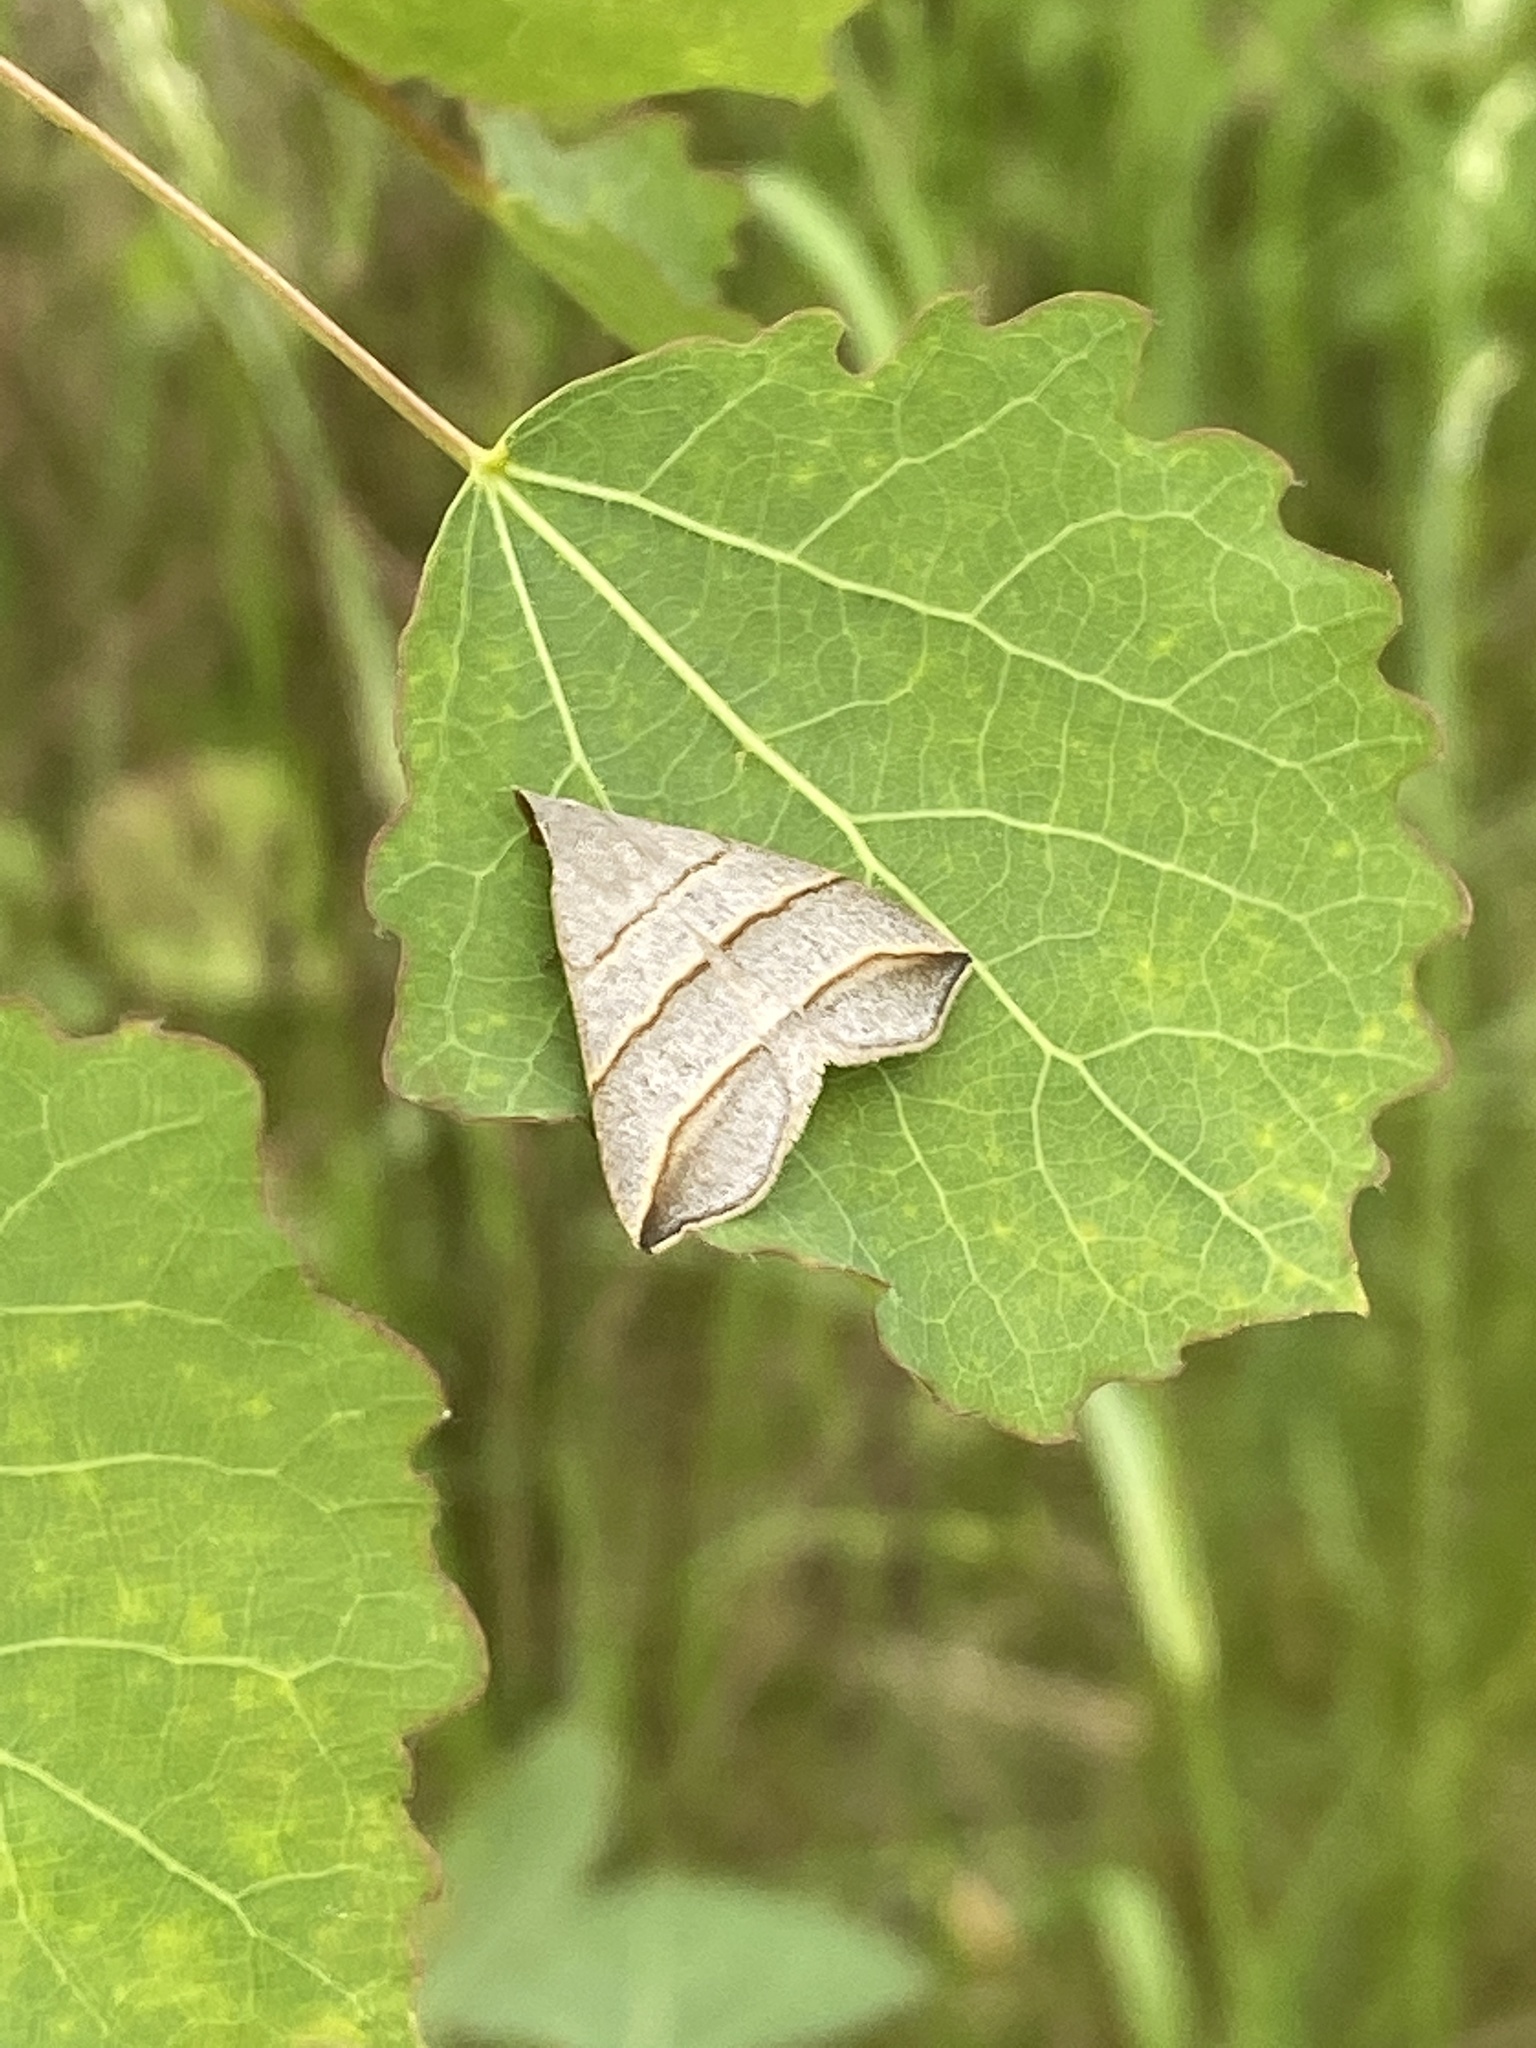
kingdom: Animalia
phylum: Arthropoda
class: Insecta
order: Lepidoptera
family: Erebidae
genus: Colobochyla
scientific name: Colobochyla salicalis
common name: Lesser belle
